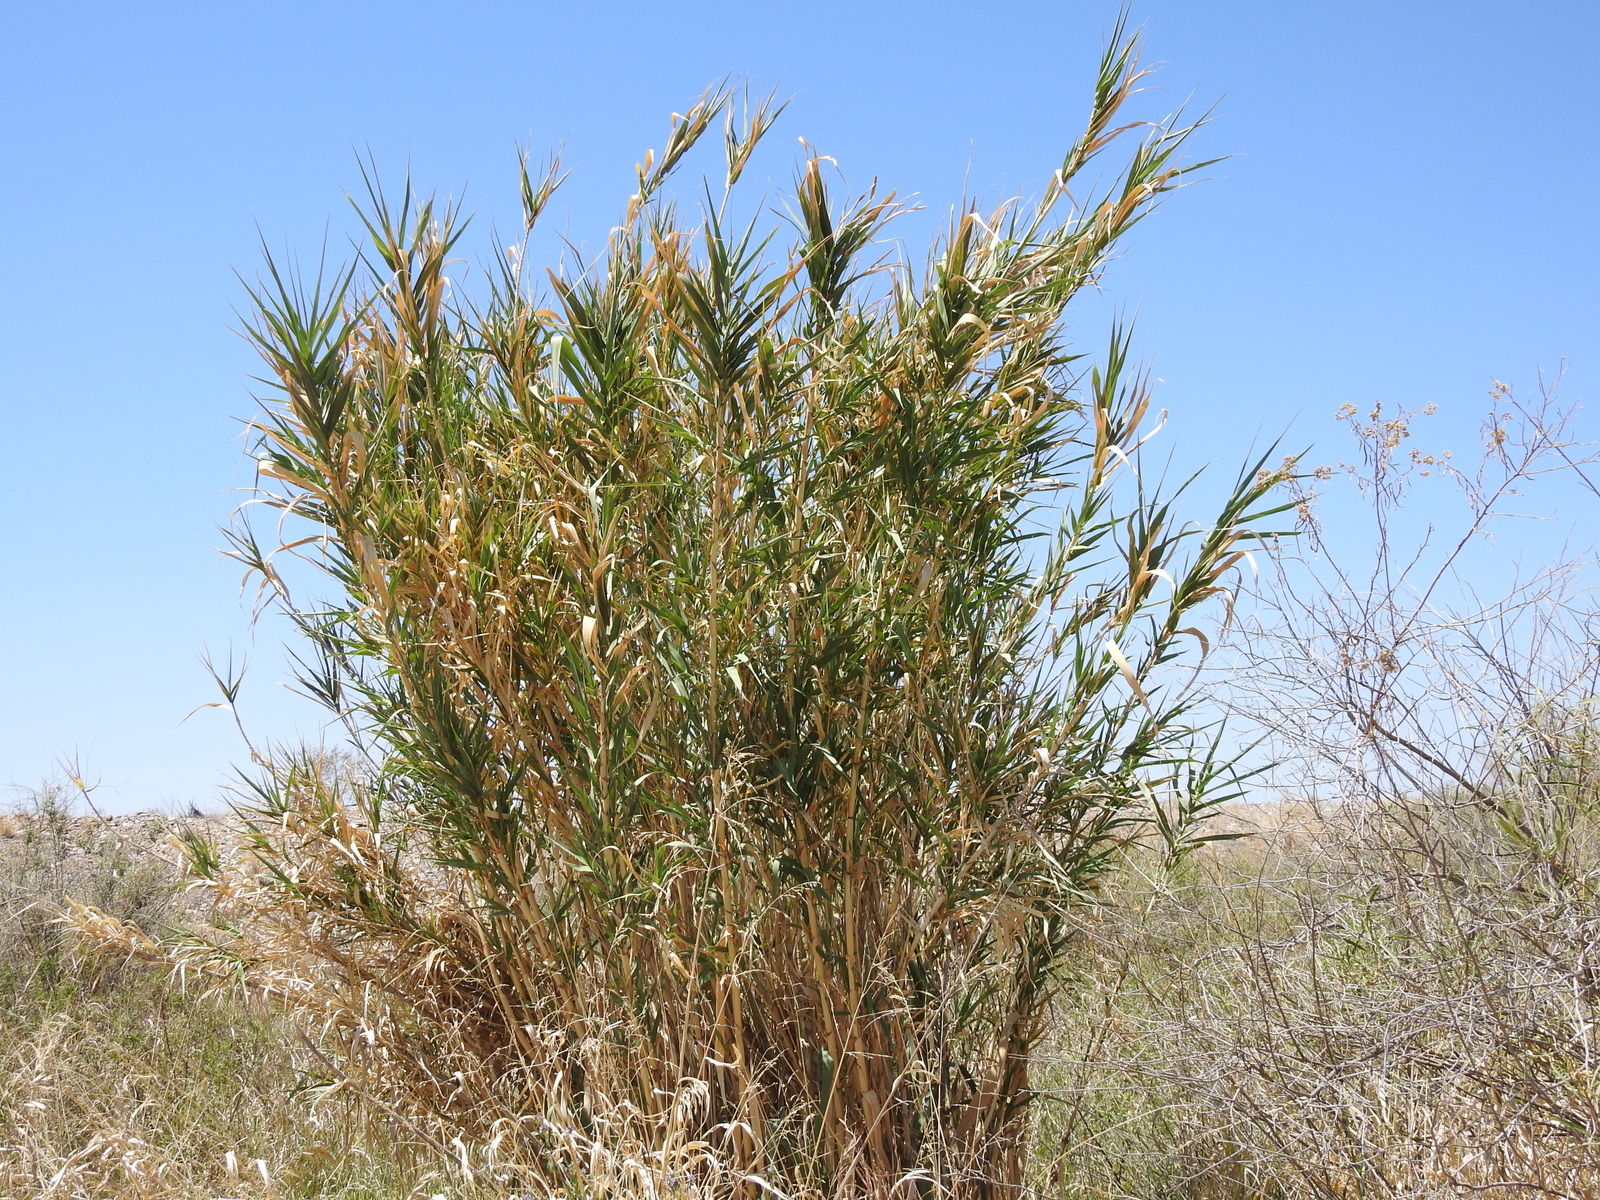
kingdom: Plantae
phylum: Tracheophyta
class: Liliopsida
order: Poales
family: Poaceae
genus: Arundo
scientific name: Arundo donax
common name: Giant reed
